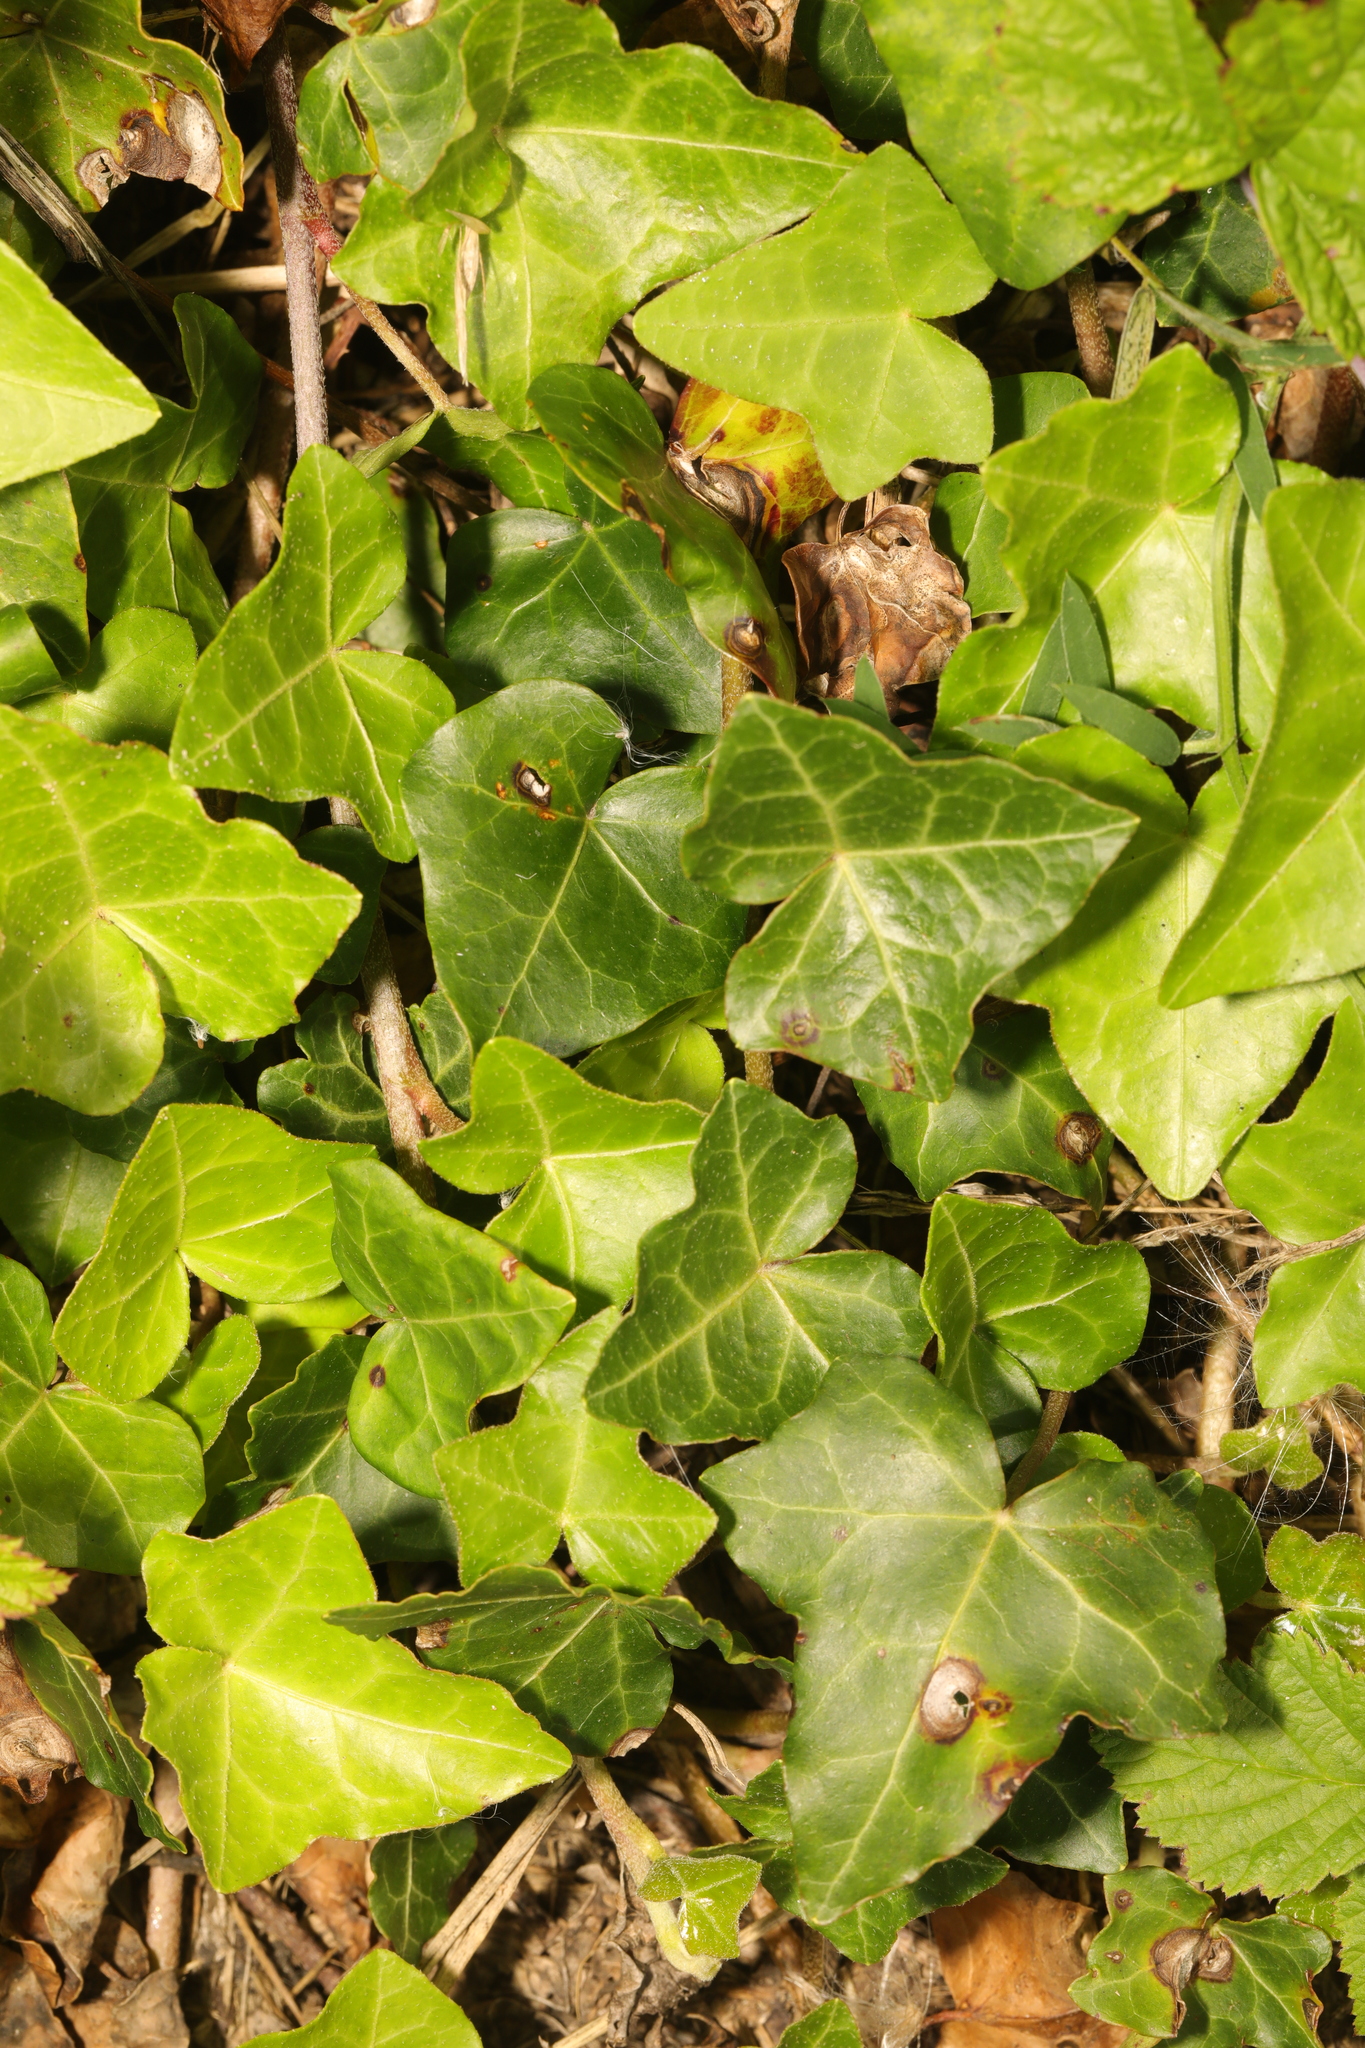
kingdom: Plantae
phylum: Tracheophyta
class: Magnoliopsida
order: Apiales
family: Araliaceae
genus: Hedera
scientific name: Hedera helix
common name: Ivy
